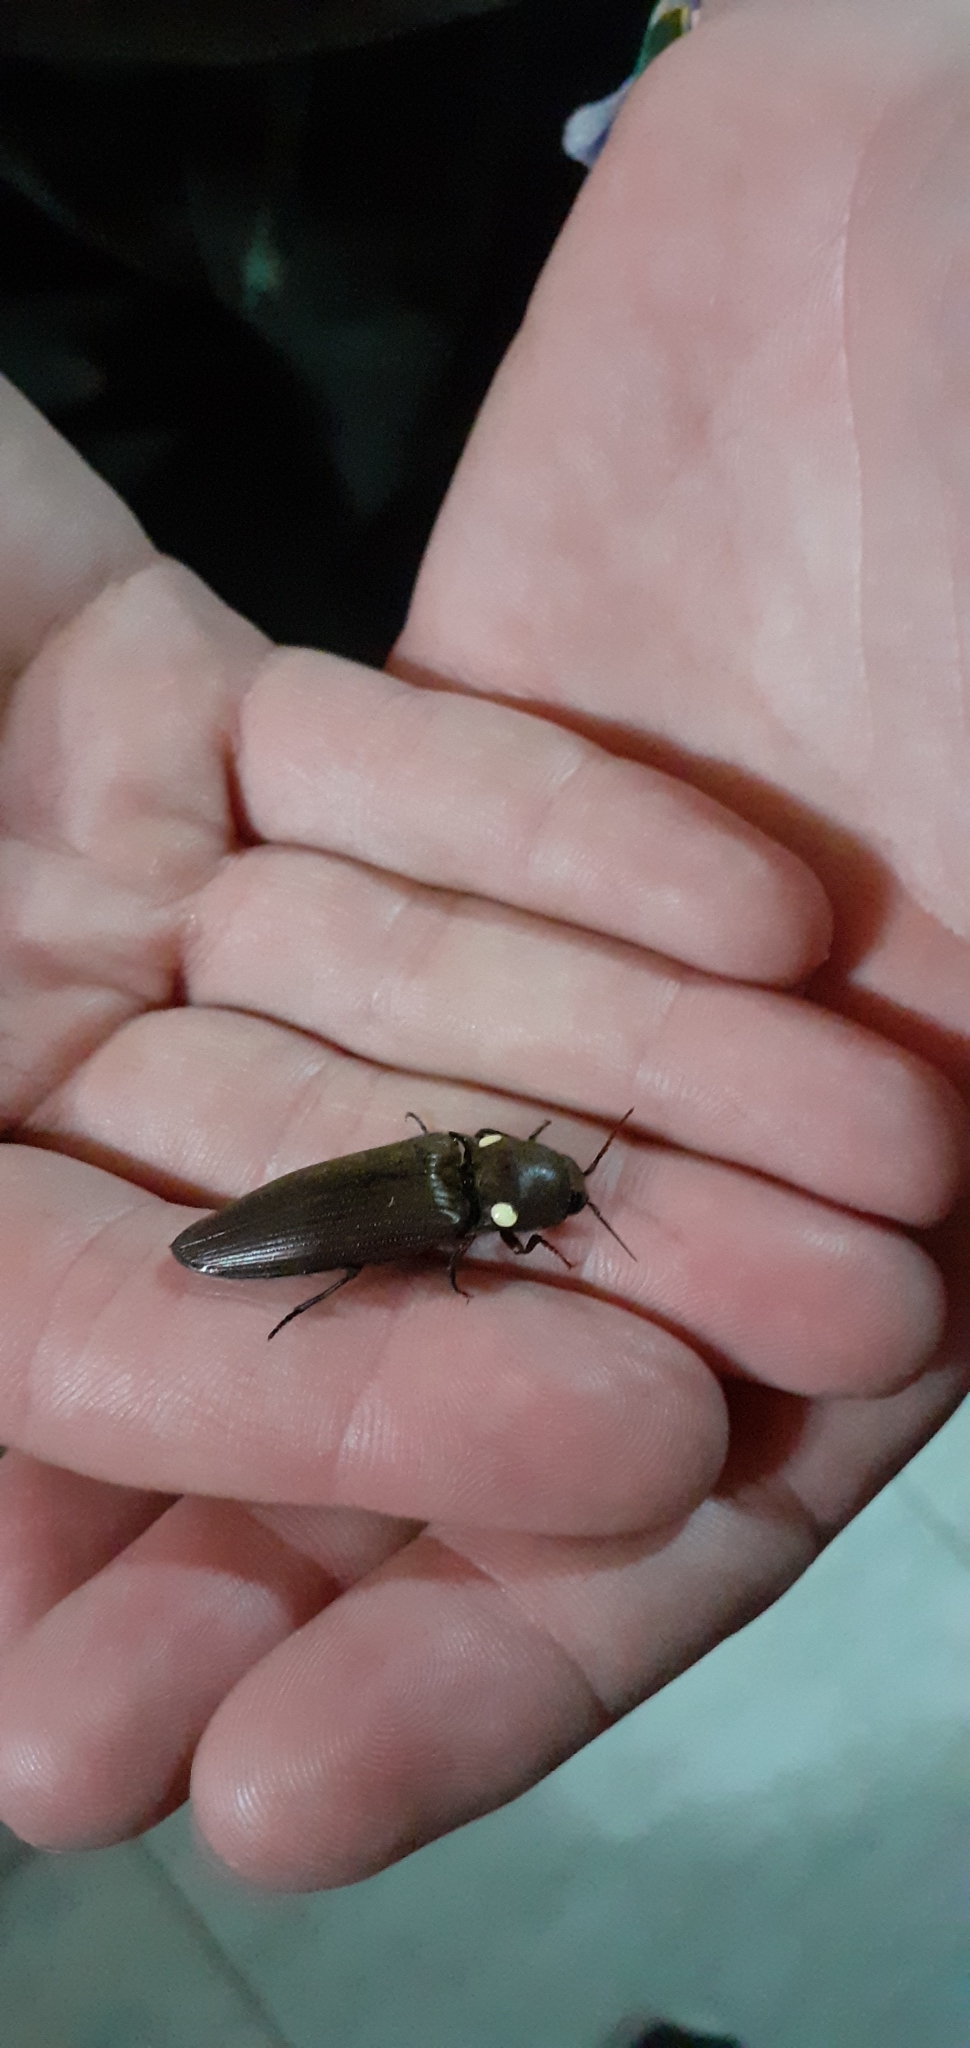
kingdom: Animalia
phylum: Arthropoda
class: Insecta
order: Coleoptera
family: Elateridae
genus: Pyrophorus
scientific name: Pyrophorus
